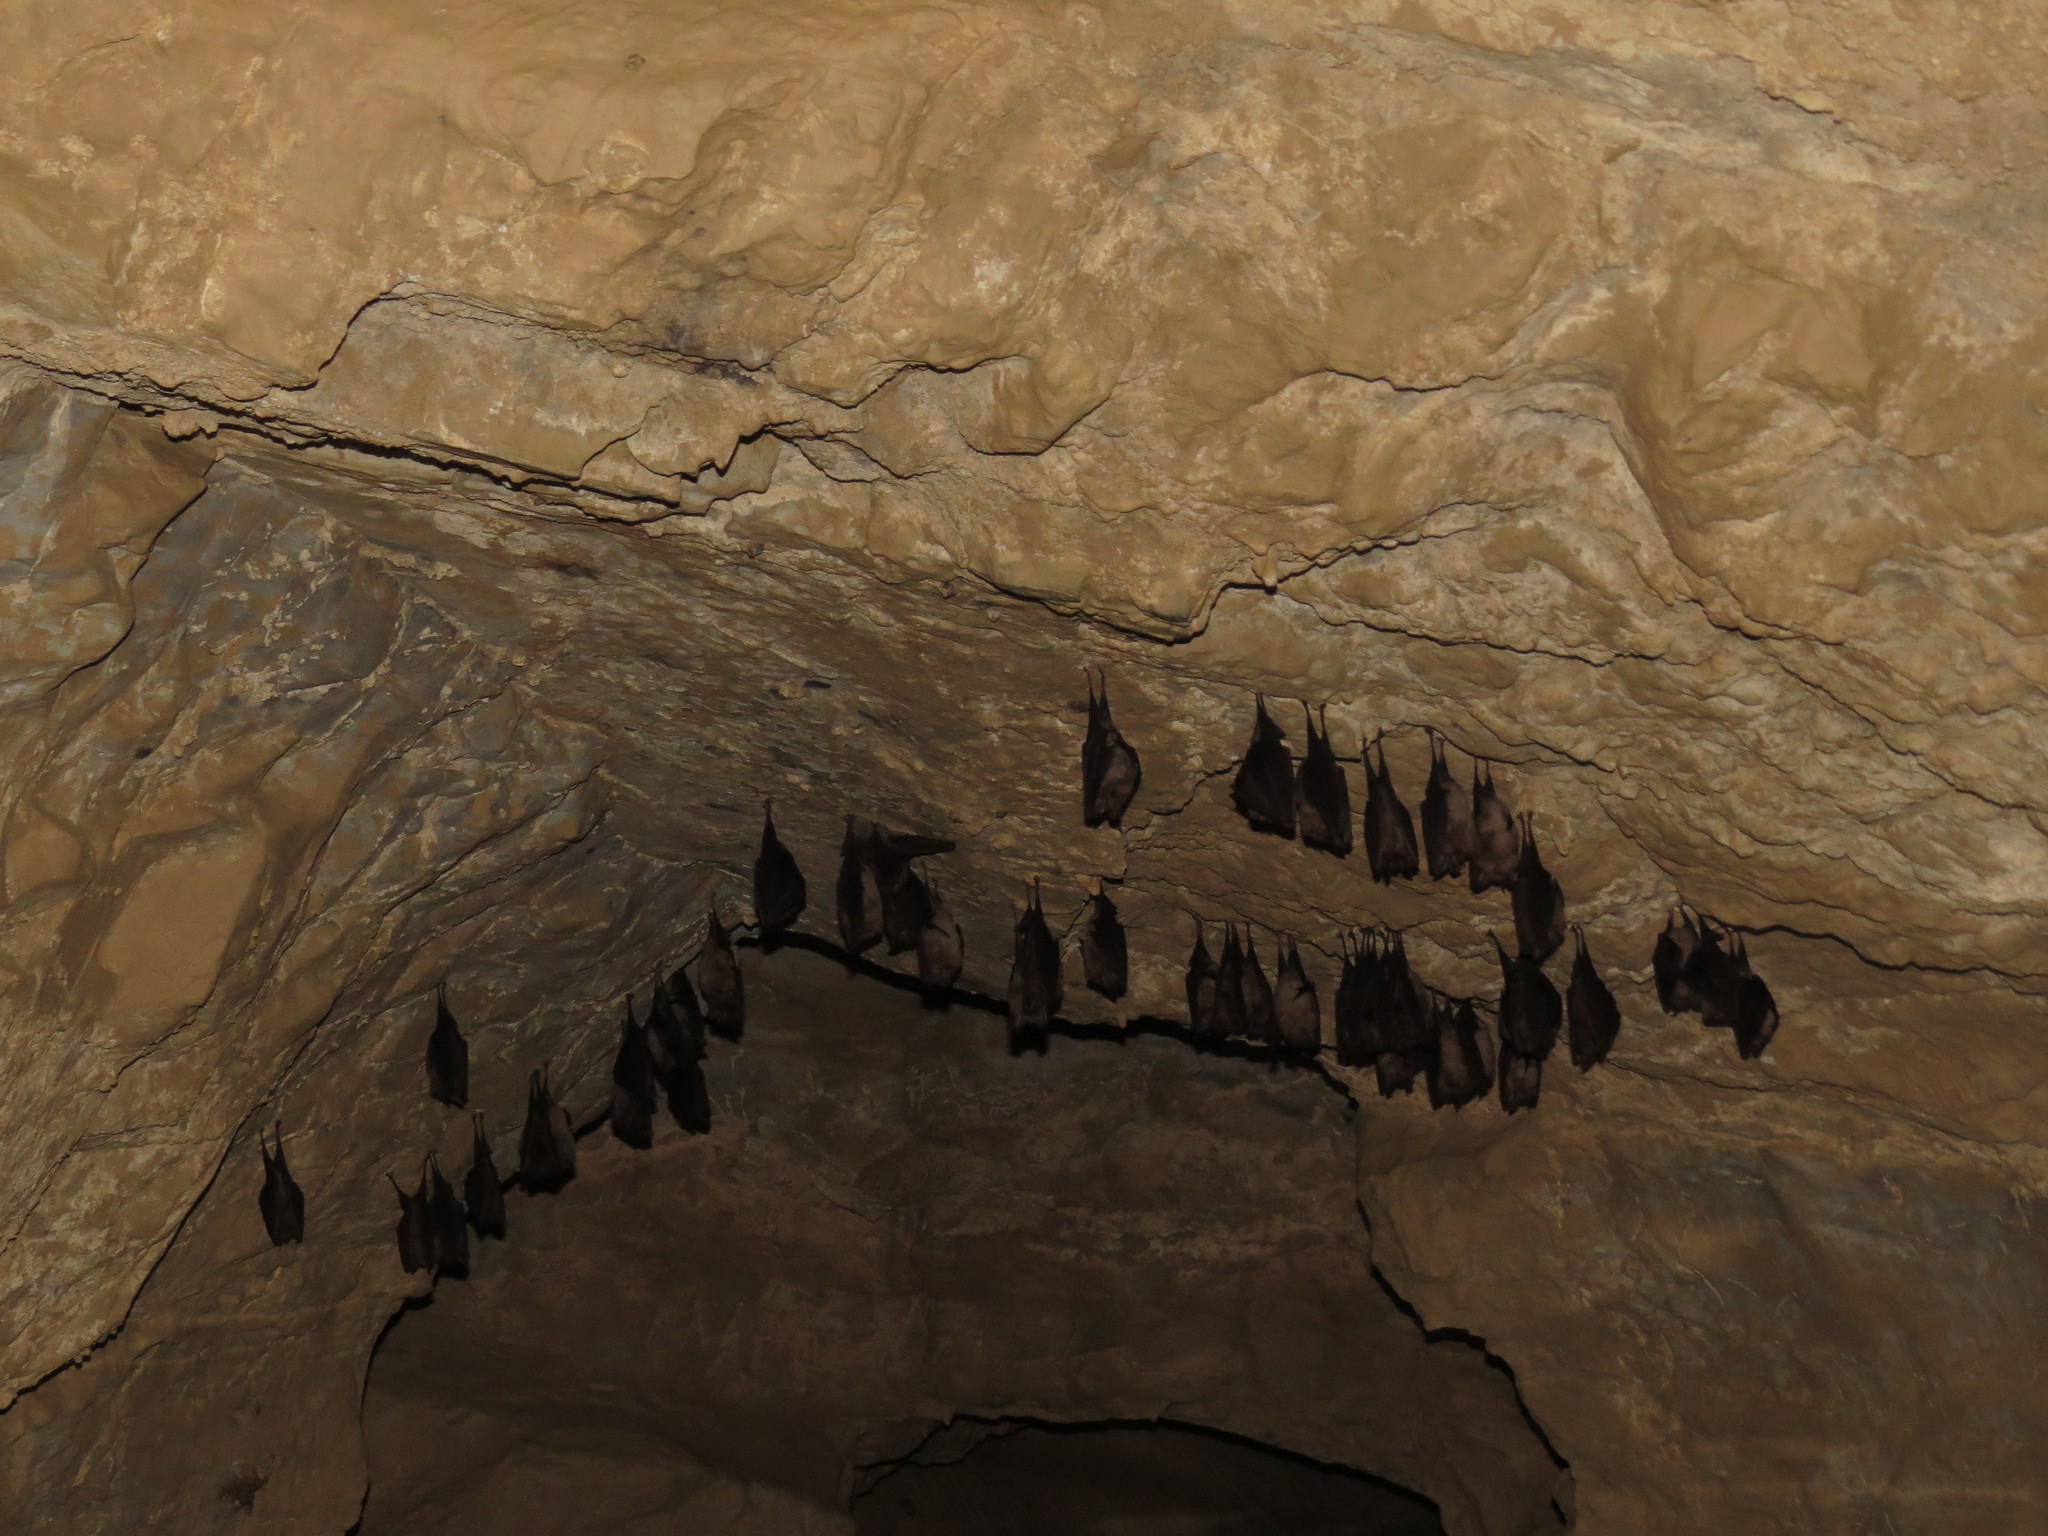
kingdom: Animalia
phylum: Chordata
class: Mammalia
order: Chiroptera
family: Rhinolophidae
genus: Rhinolophus
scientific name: Rhinolophus ferrumequinum
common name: Greater horseshoe bat
